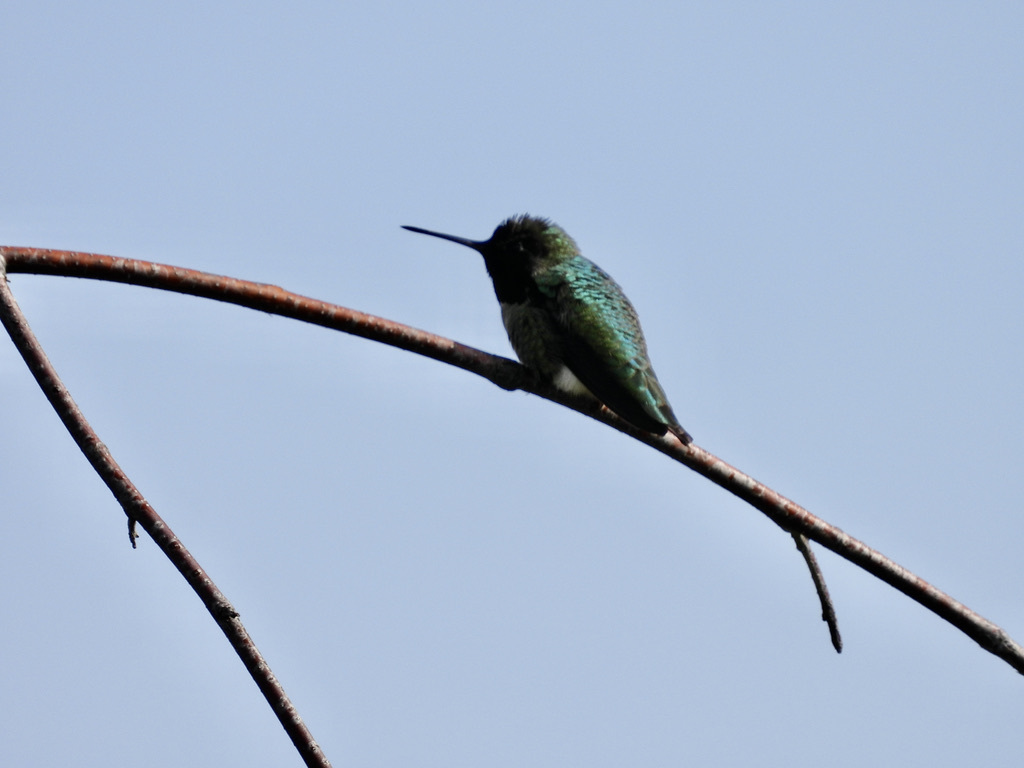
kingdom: Animalia
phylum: Chordata
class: Aves
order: Apodiformes
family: Trochilidae
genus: Calypte
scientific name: Calypte anna
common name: Anna's hummingbird
